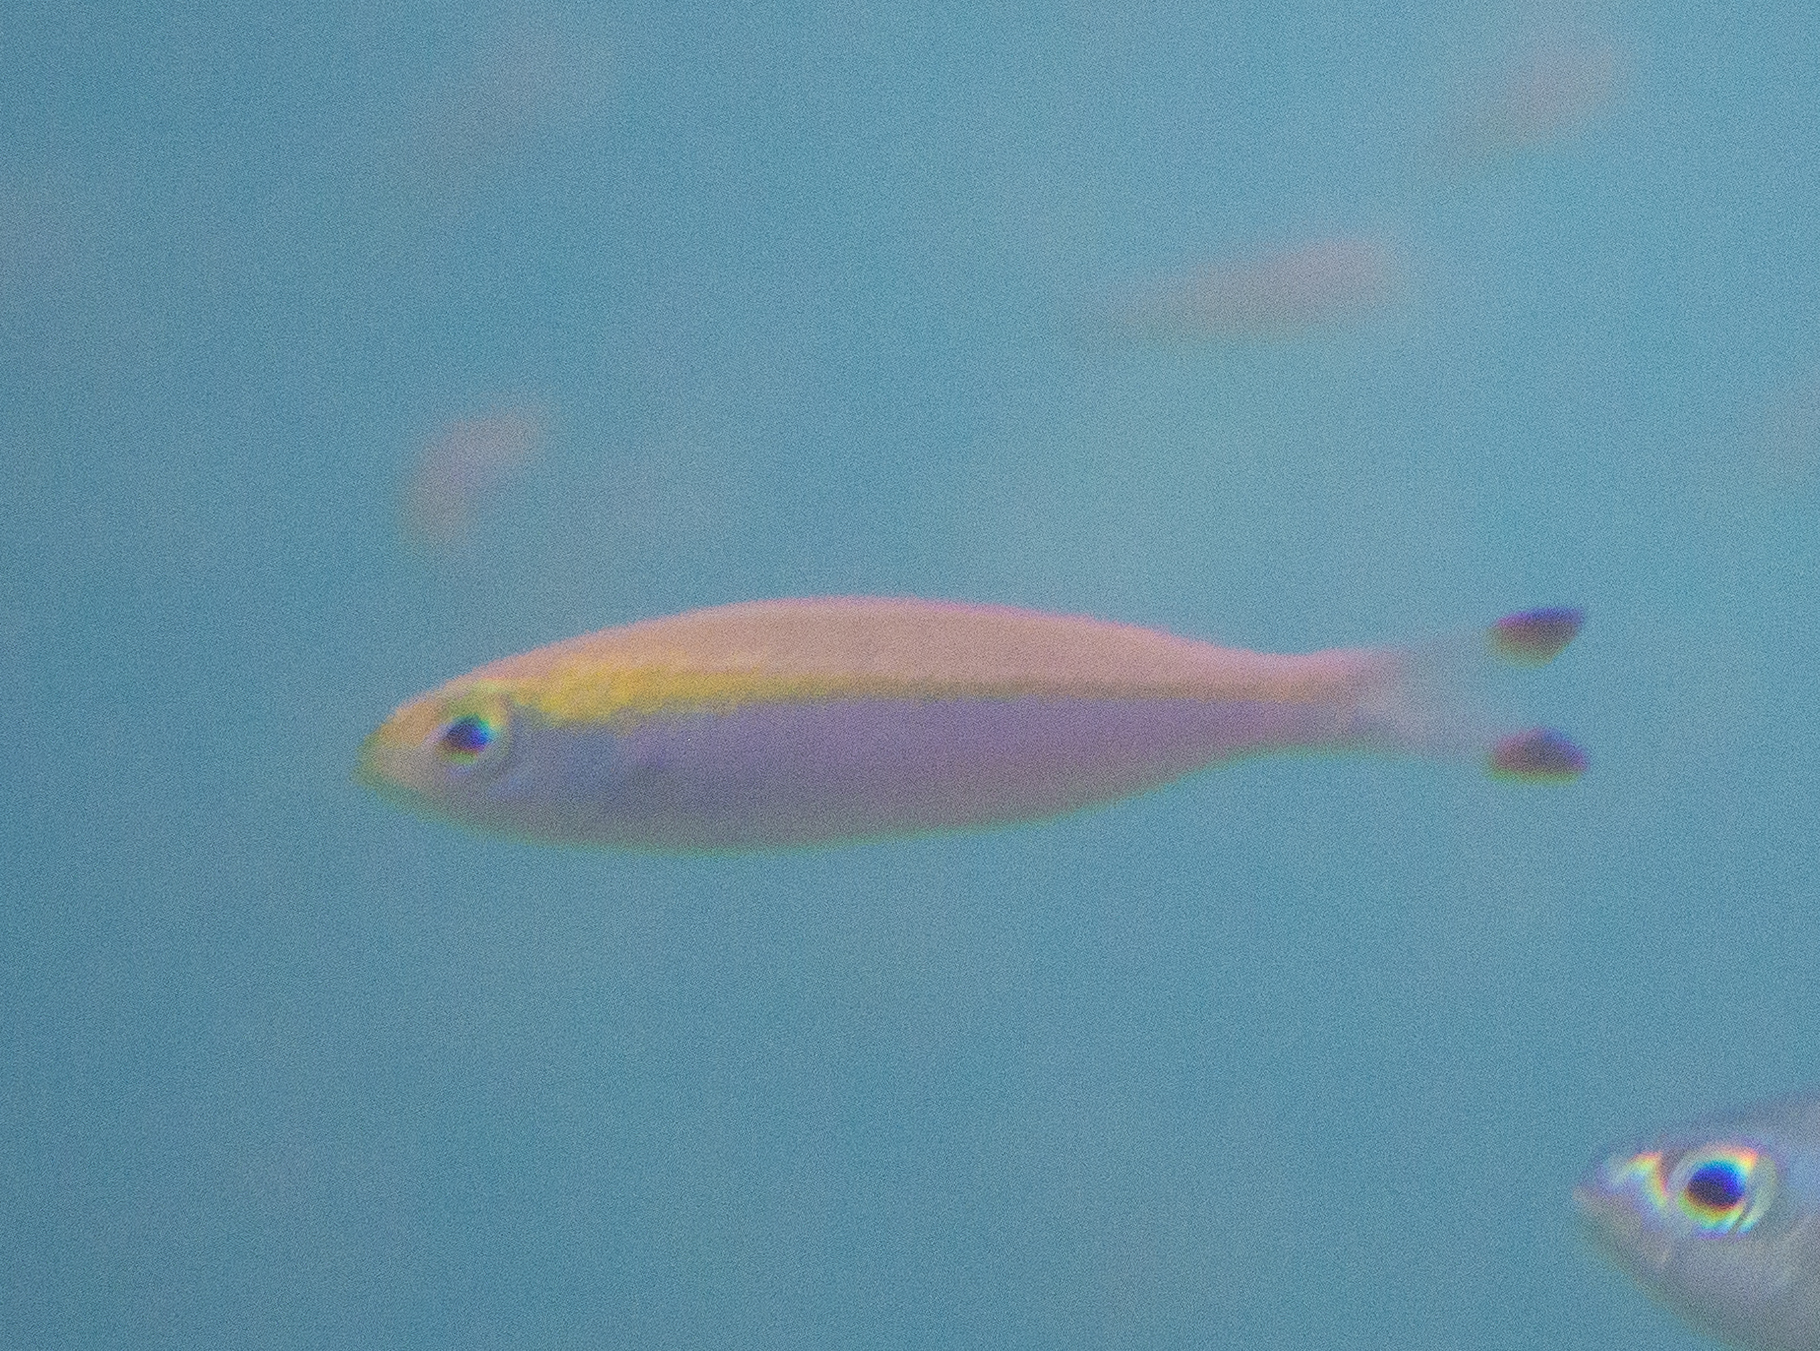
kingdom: Animalia
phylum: Chordata
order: Perciformes
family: Caesionidae
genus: Pterocaesio
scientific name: Pterocaesio pisang
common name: Banana fusilier
